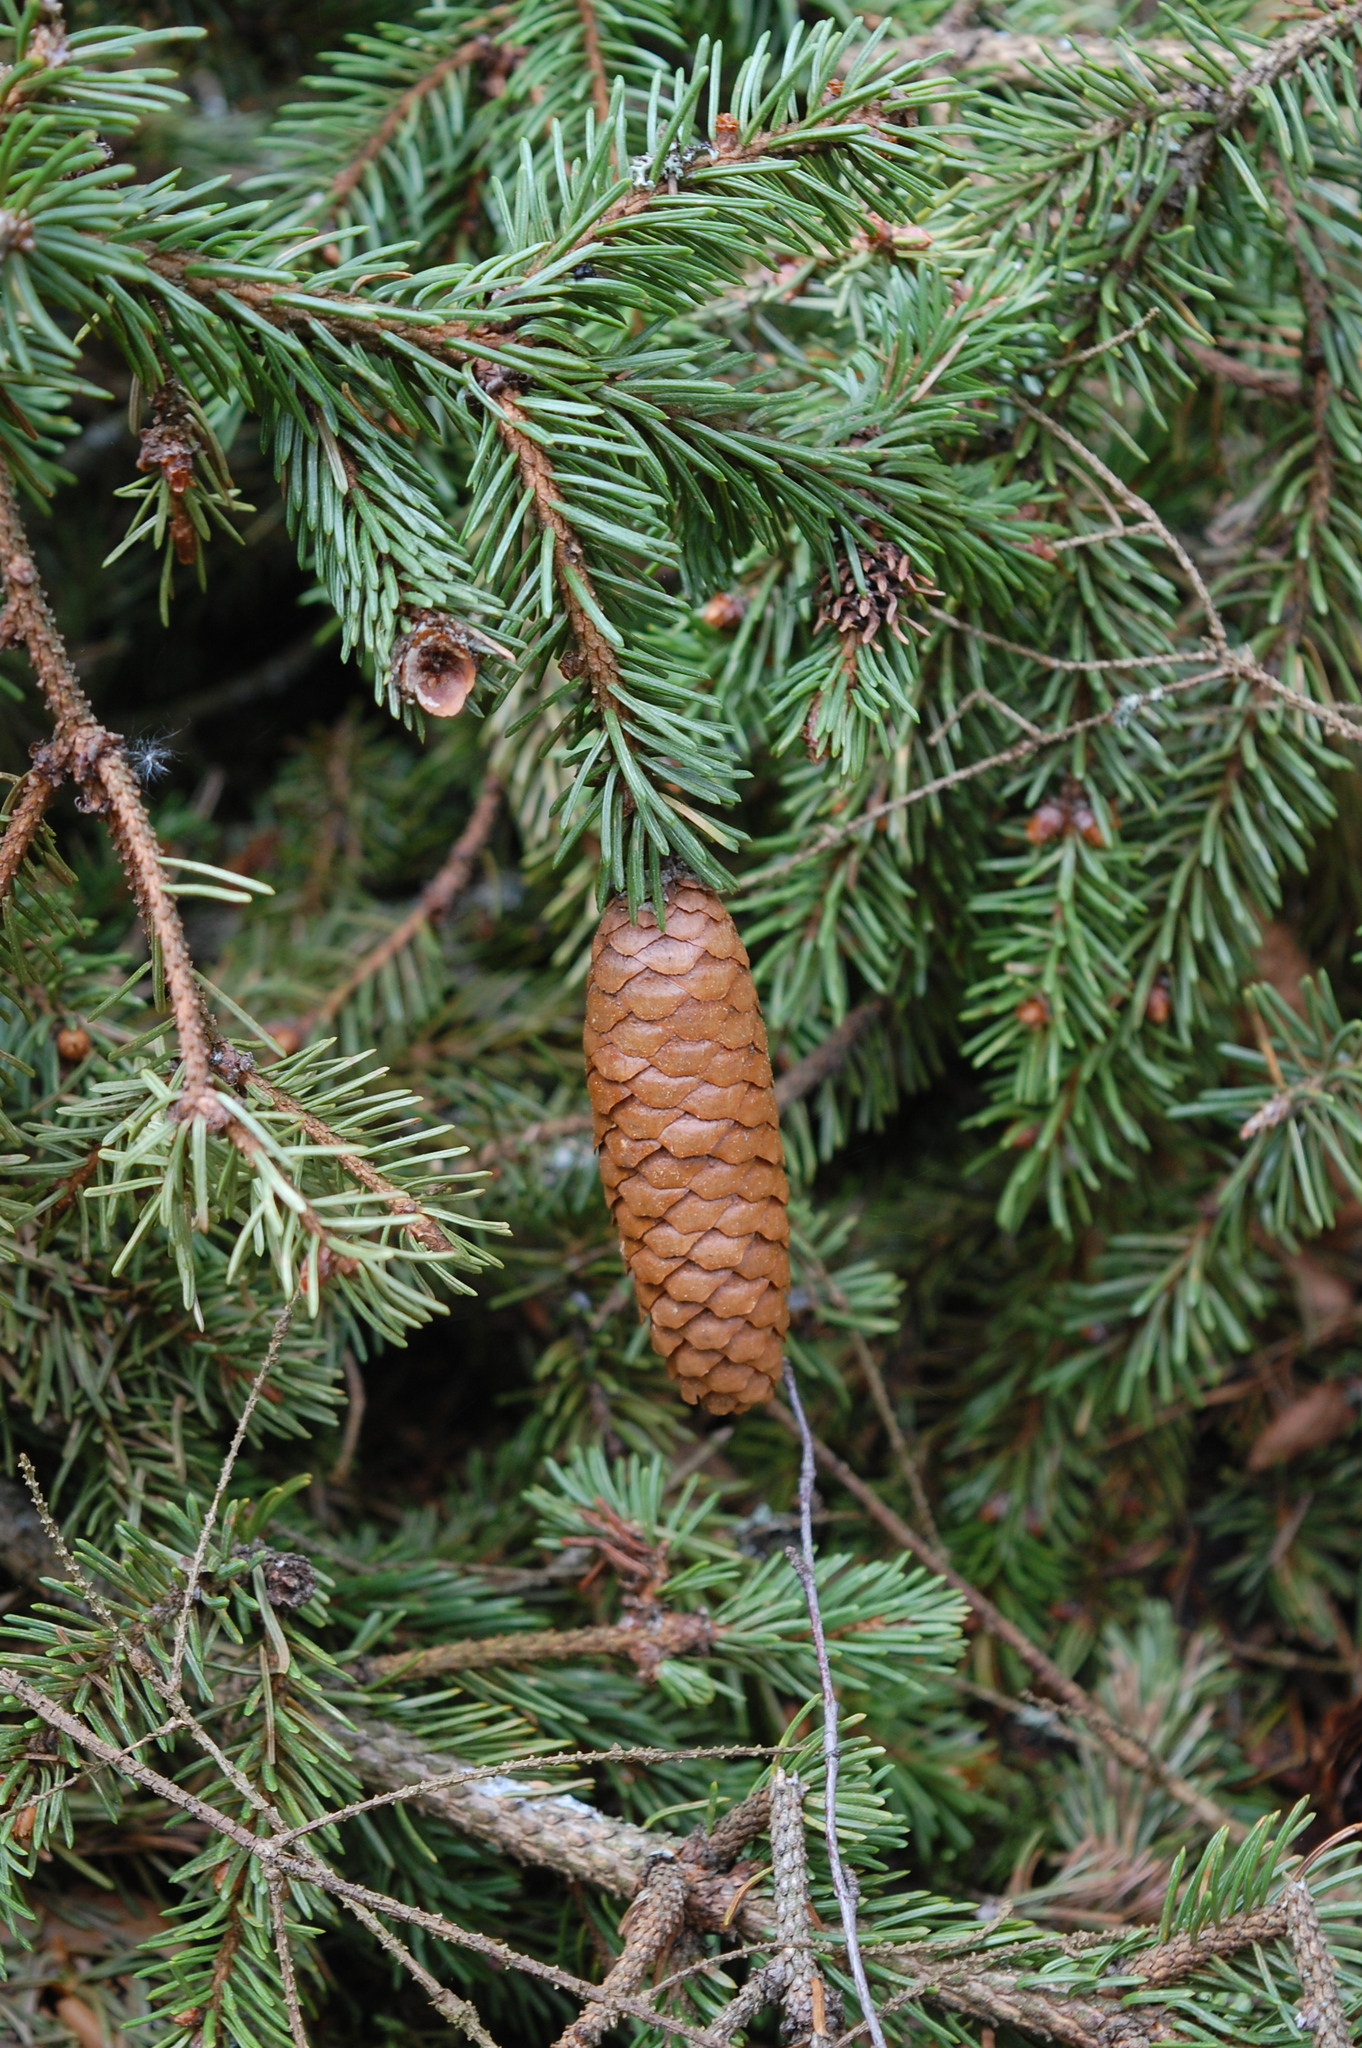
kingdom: Plantae
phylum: Tracheophyta
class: Pinopsida
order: Pinales
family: Pinaceae
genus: Picea
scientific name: Picea abies
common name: Norway spruce
